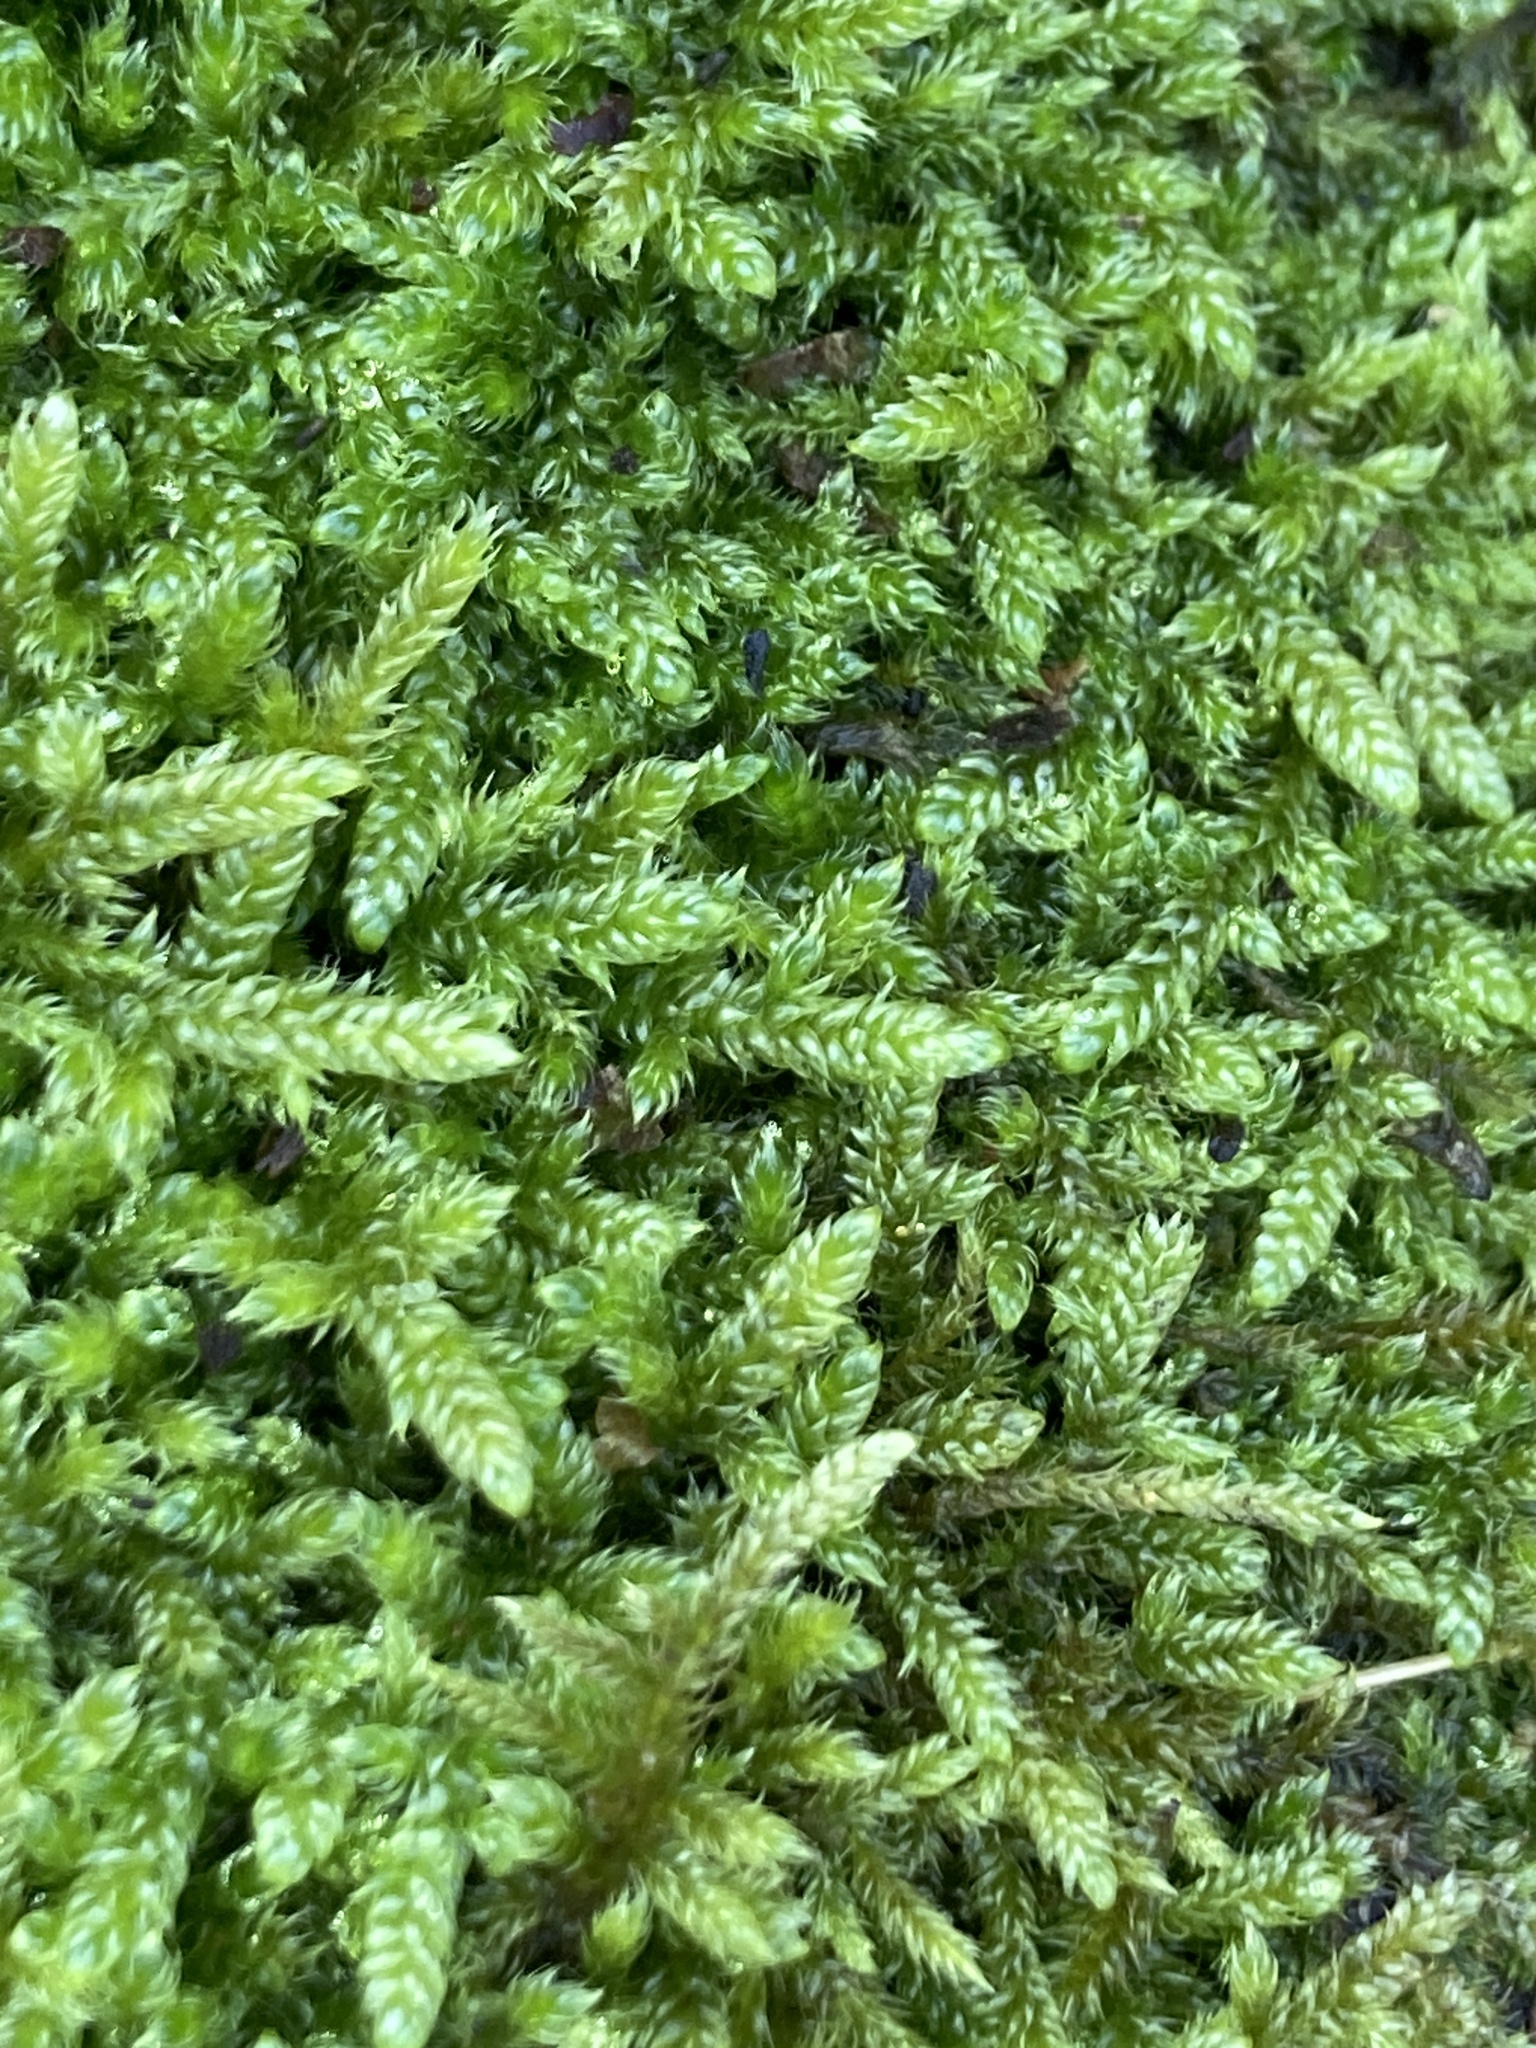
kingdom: Plantae
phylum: Bryophyta
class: Bryopsida
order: Hypnales
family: Hypnaceae
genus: Hypnum
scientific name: Hypnum cupressiforme
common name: Cypress-leaved plait-moss
